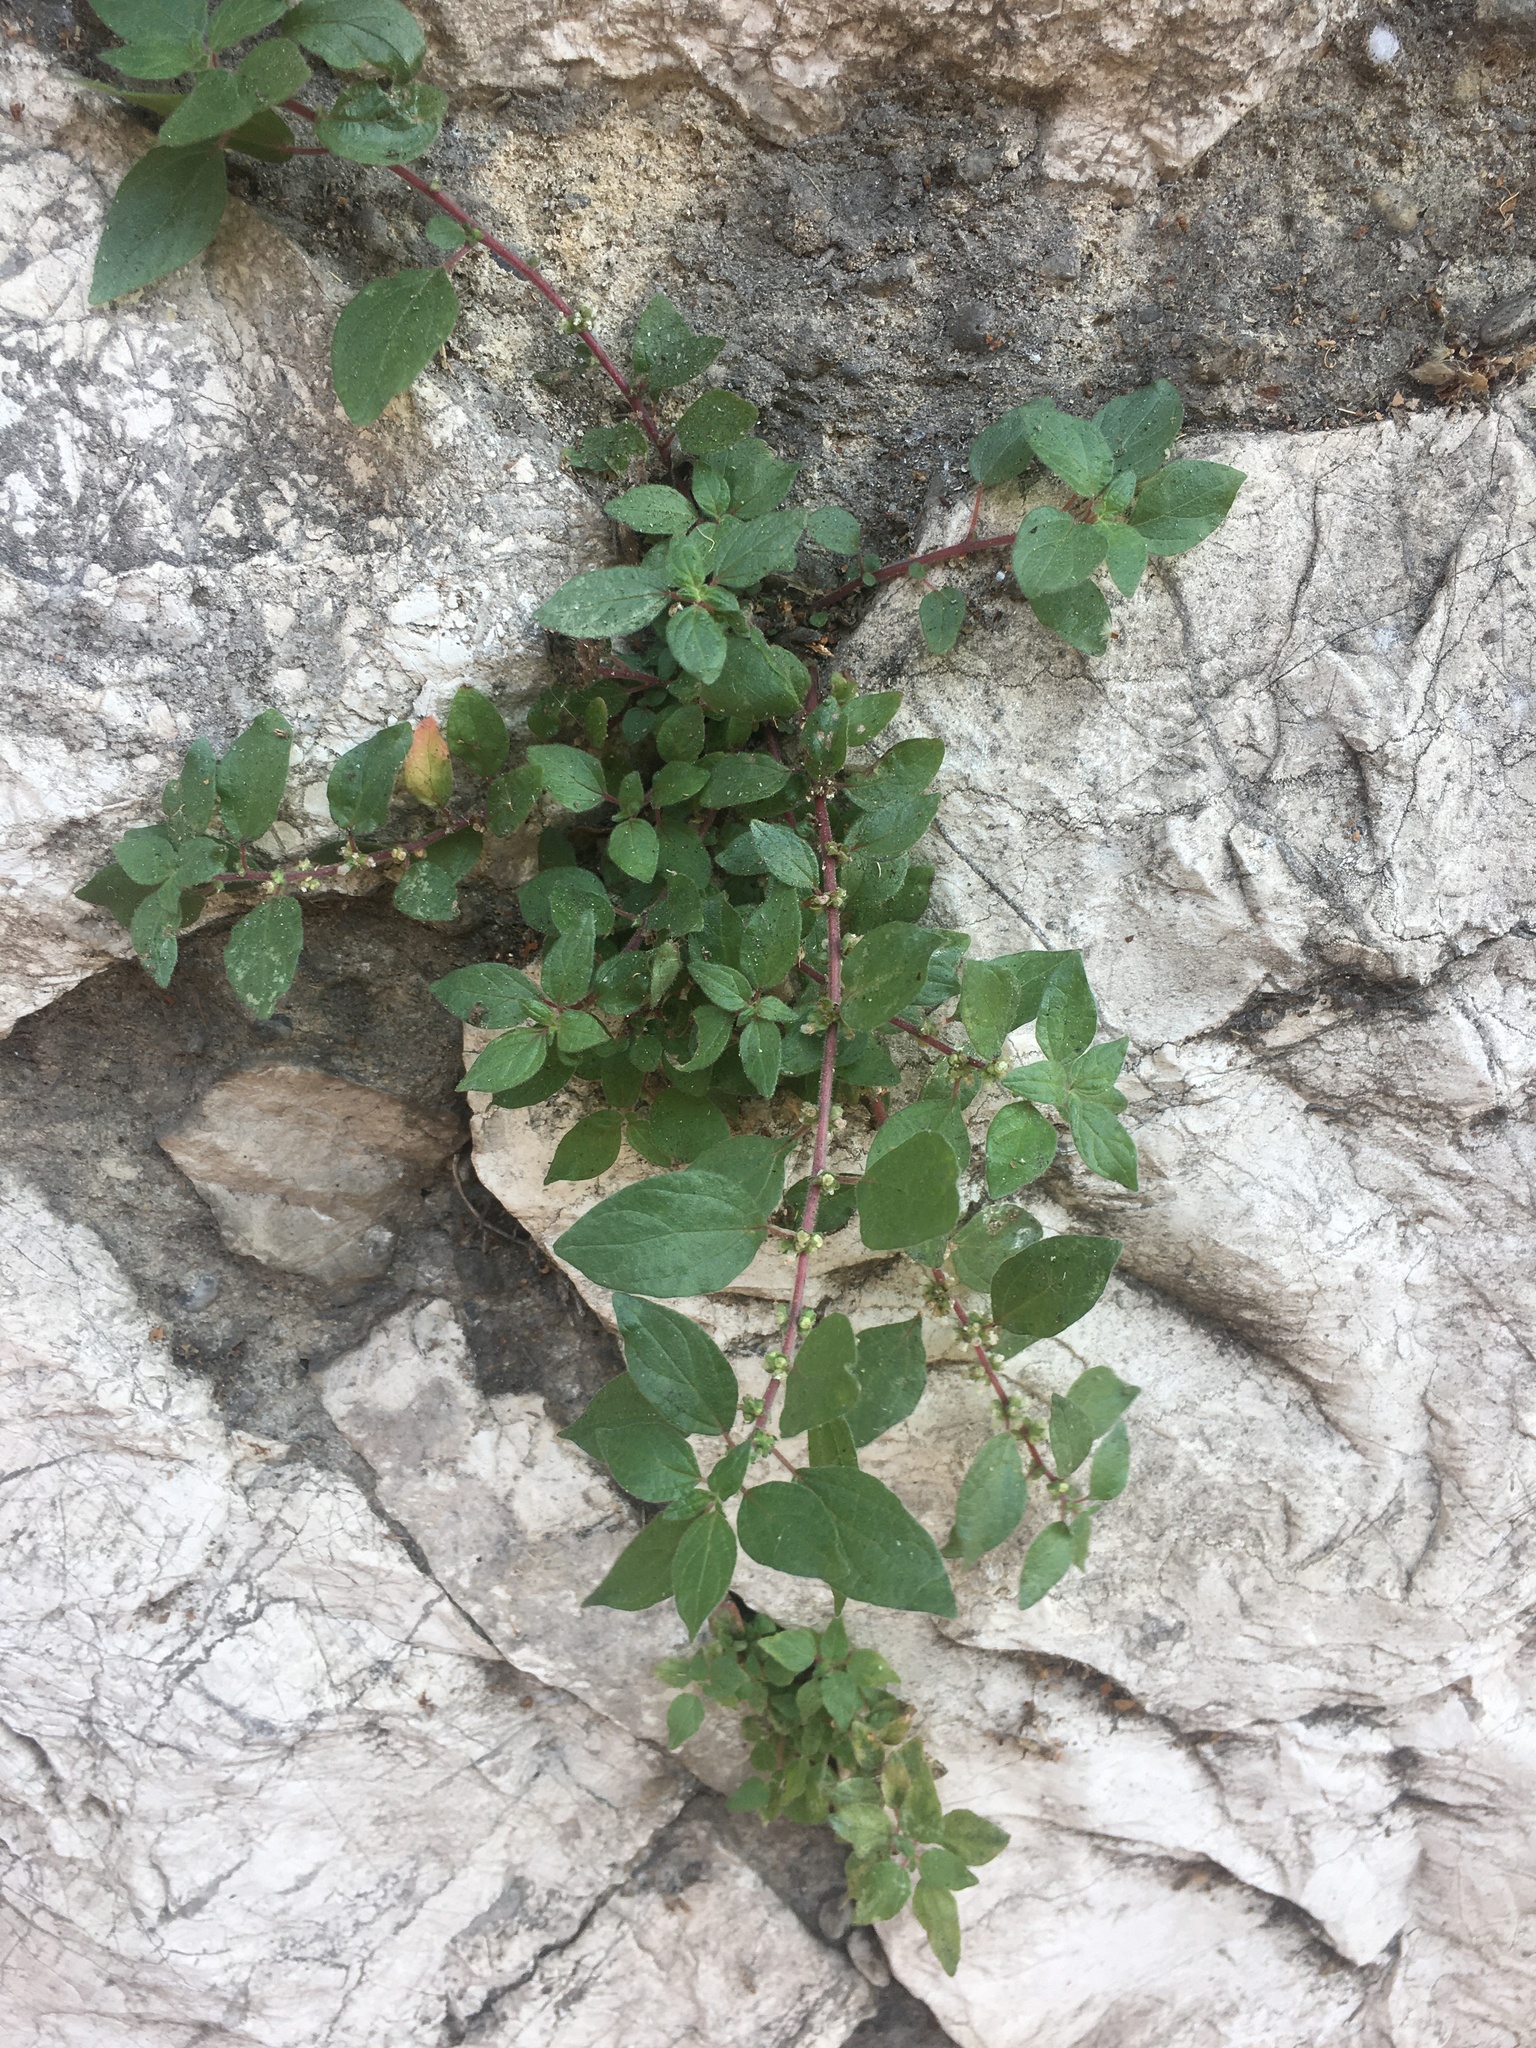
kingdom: Plantae
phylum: Tracheophyta
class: Magnoliopsida
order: Rosales
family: Urticaceae
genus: Parietaria
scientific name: Parietaria judaica
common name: Pellitory-of-the-wall
